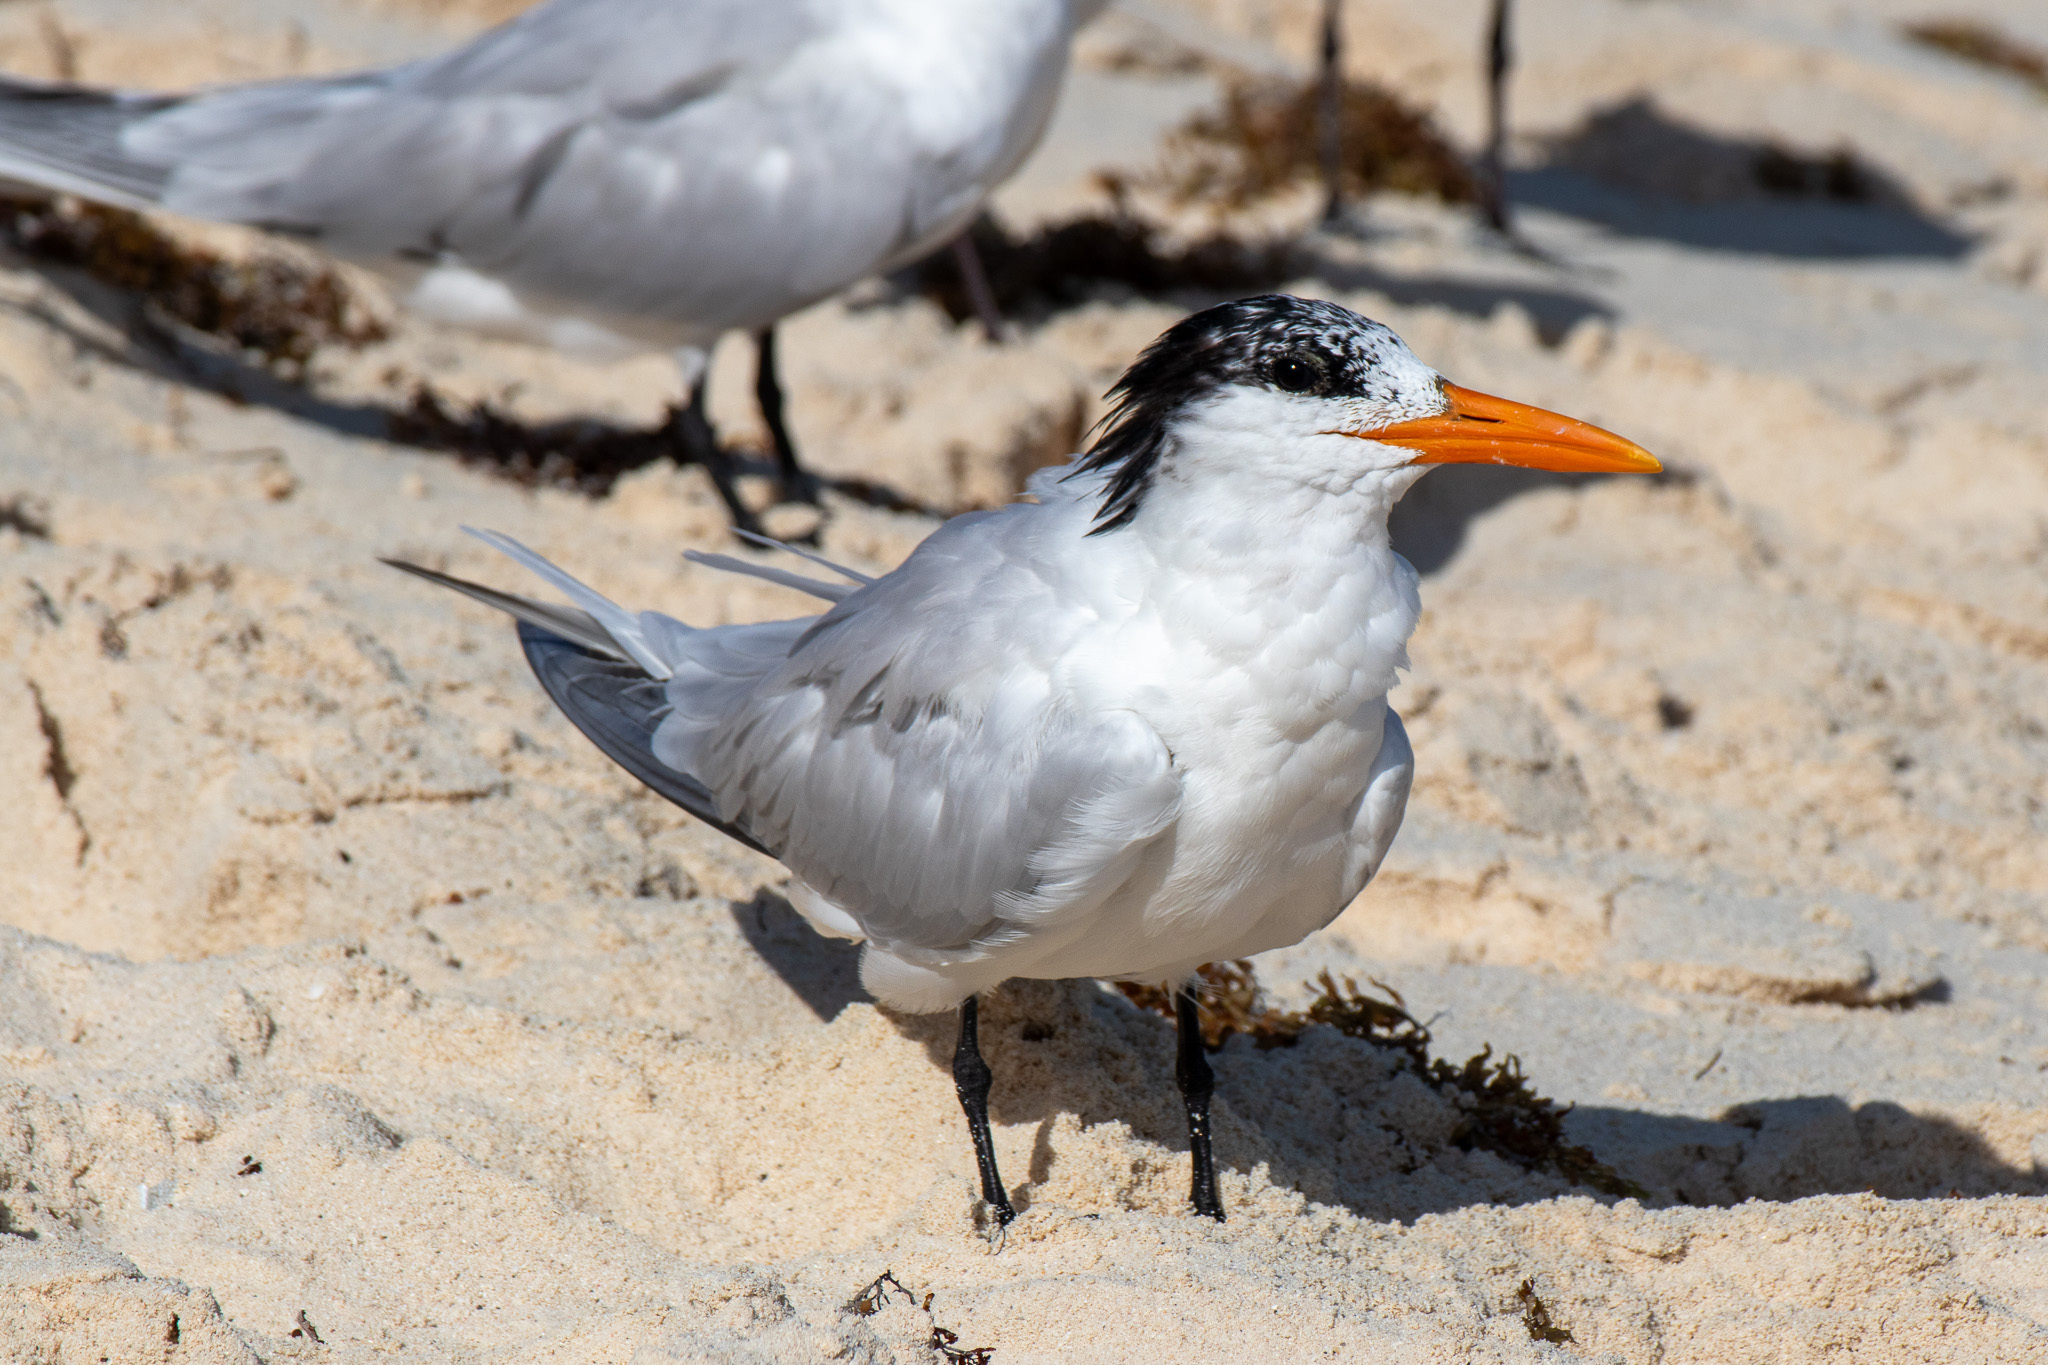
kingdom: Animalia
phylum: Chordata
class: Aves
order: Charadriiformes
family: Laridae
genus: Thalasseus
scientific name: Thalasseus maximus
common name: Royal tern
